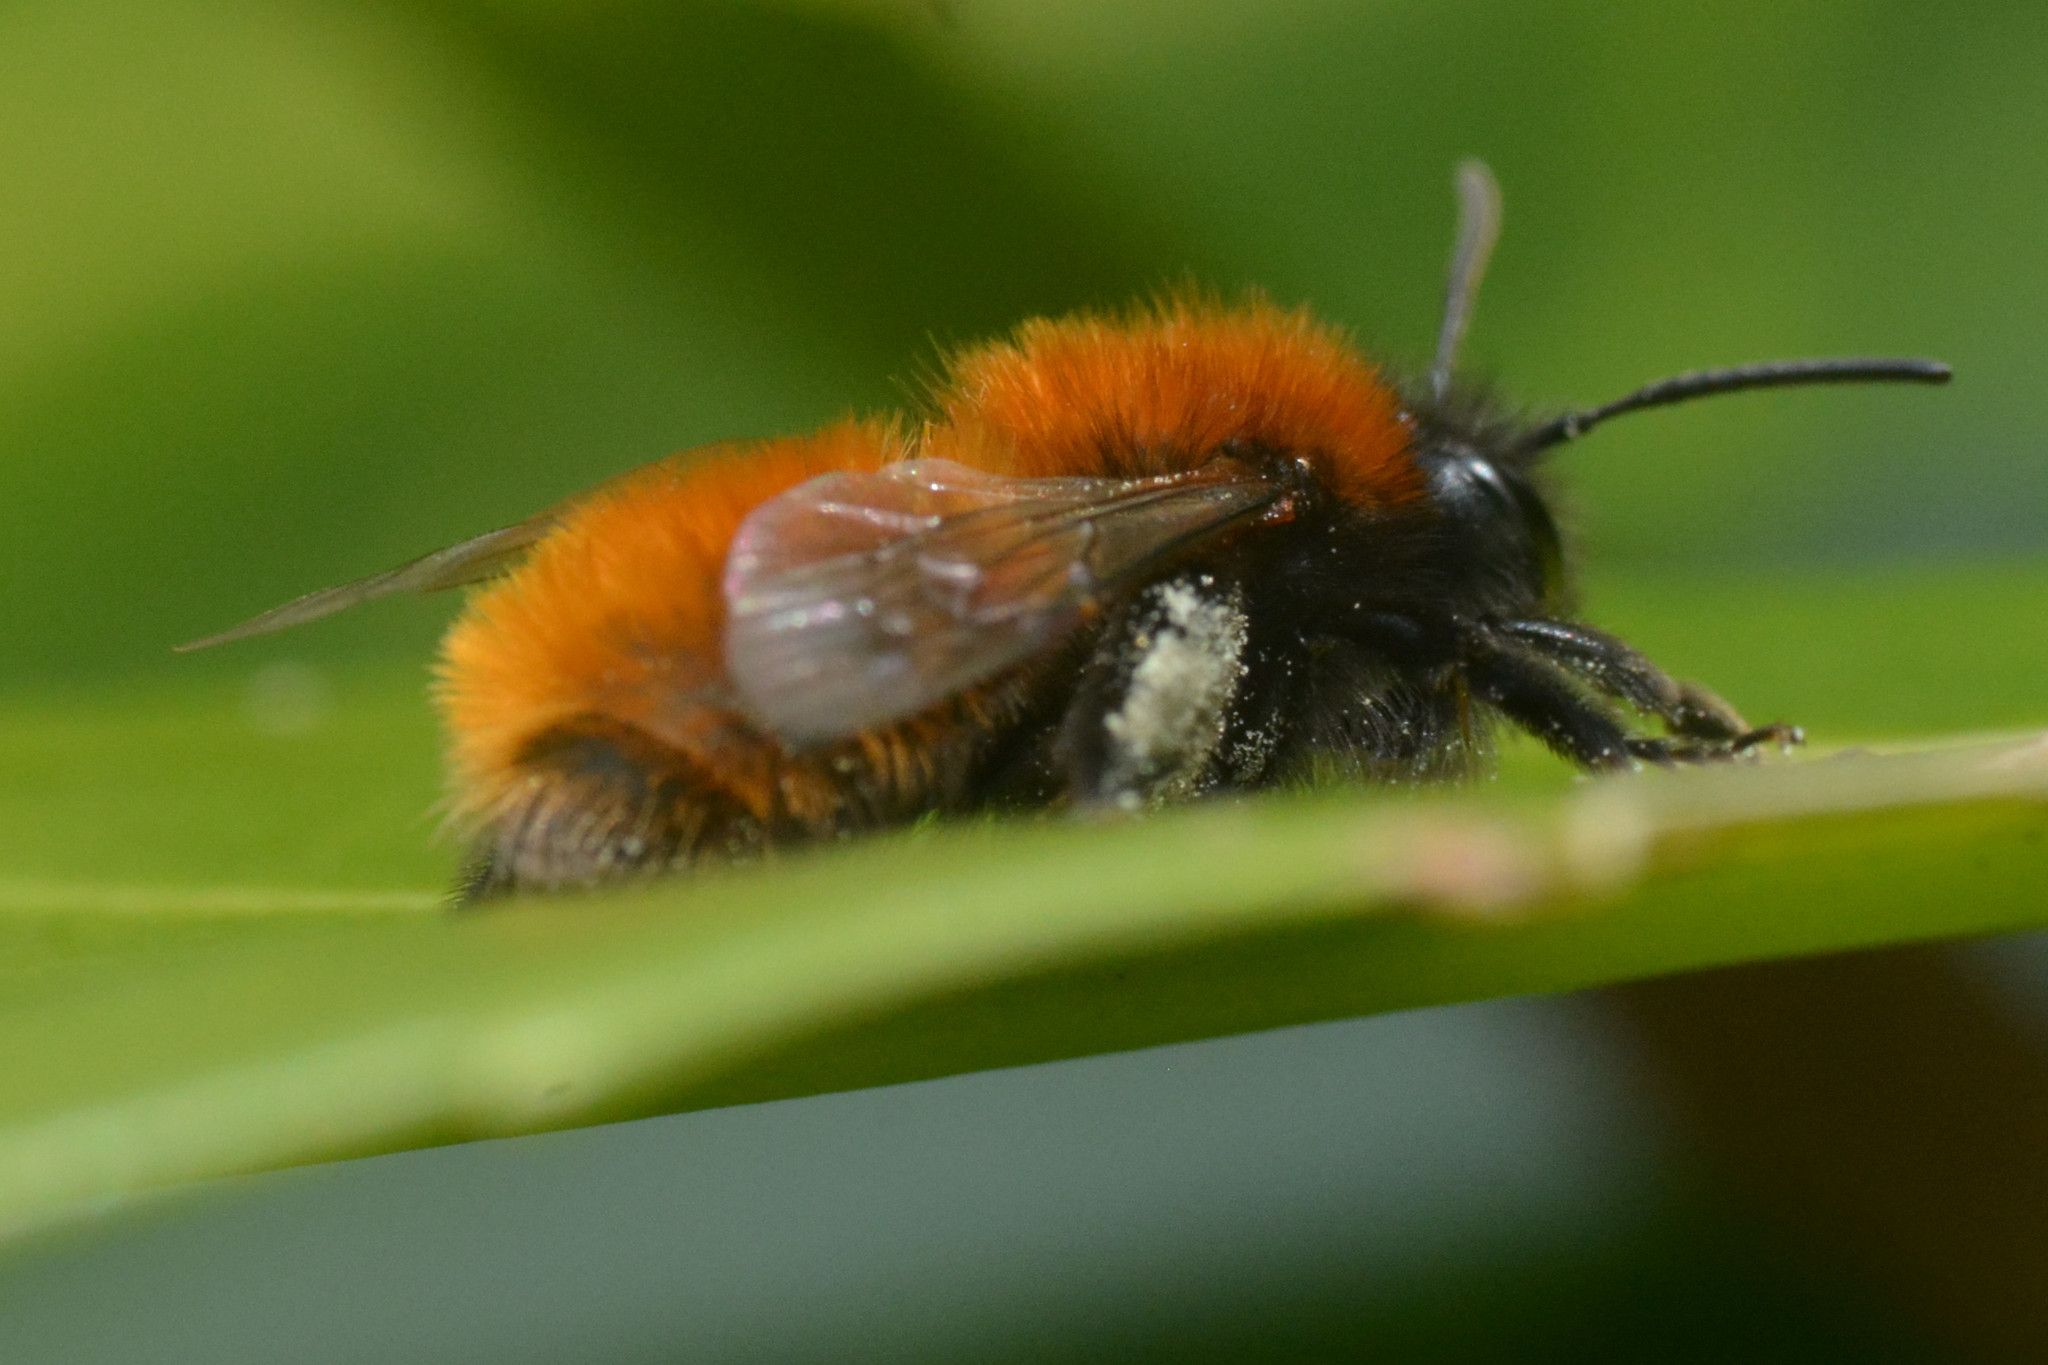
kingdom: Animalia
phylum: Arthropoda
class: Insecta
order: Hymenoptera
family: Andrenidae
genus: Andrena
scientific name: Andrena fulva
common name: Tawny mining bee
